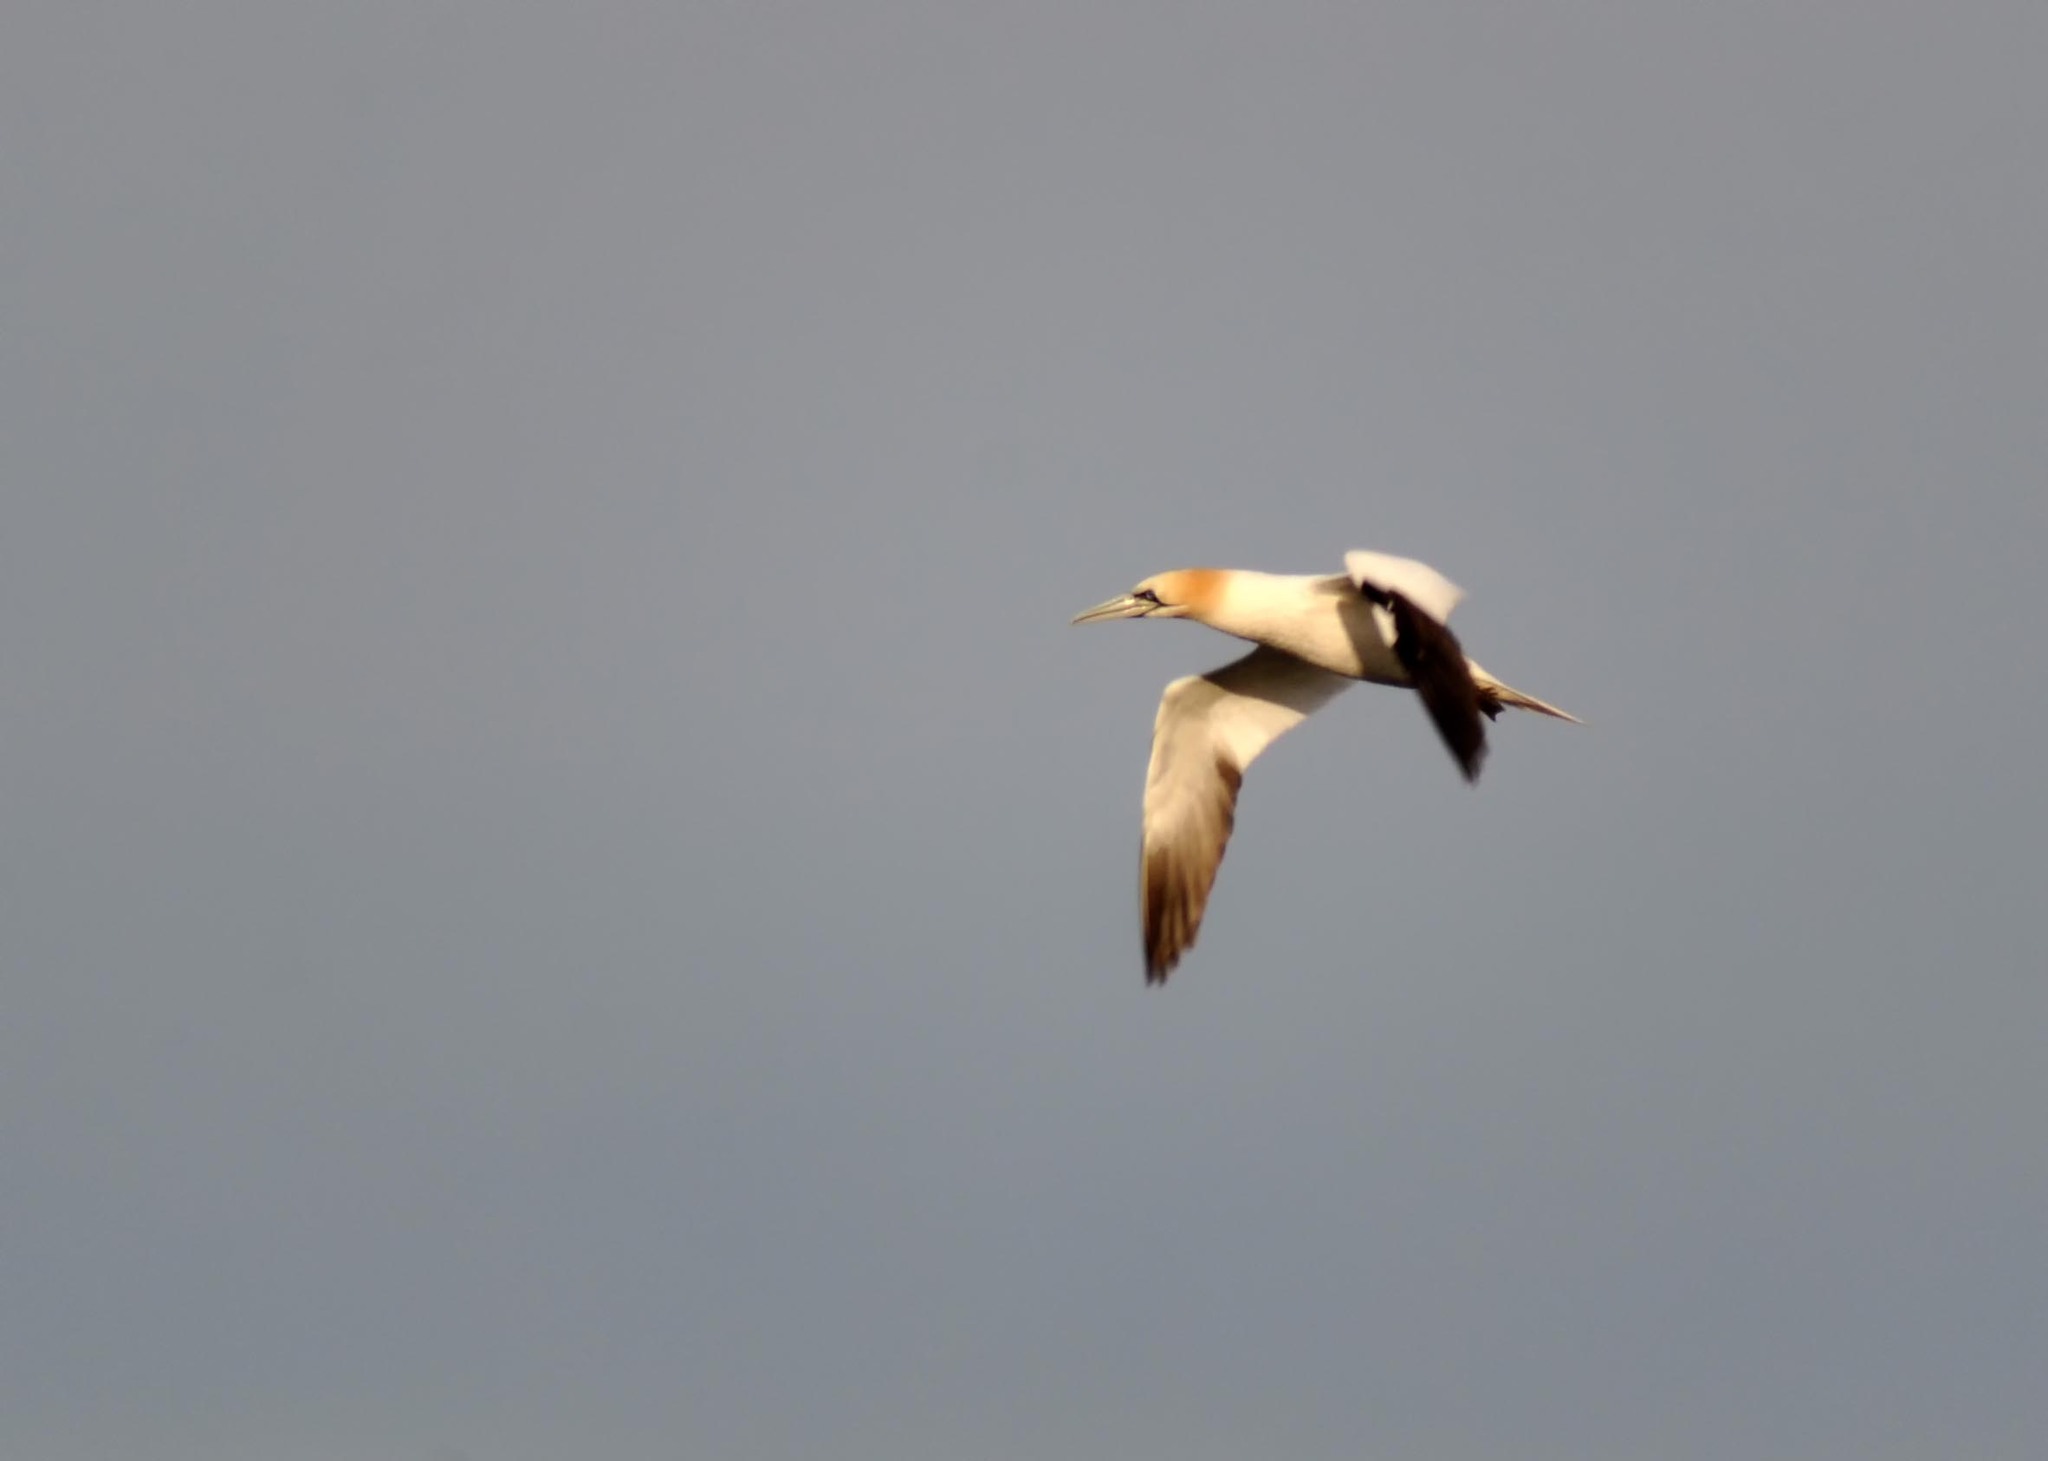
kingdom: Animalia
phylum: Chordata
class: Aves
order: Suliformes
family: Sulidae
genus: Morus
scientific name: Morus bassanus
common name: Northern gannet
